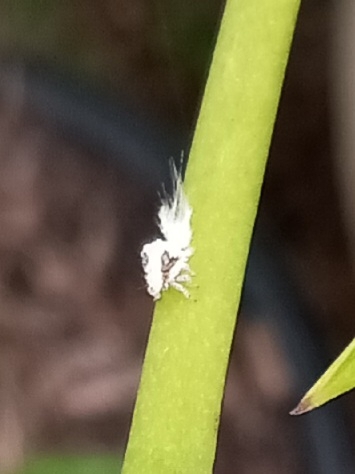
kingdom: Animalia
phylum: Arthropoda
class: Insecta
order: Hemiptera
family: Acanaloniidae
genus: Acanalonia
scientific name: Acanalonia servillei
